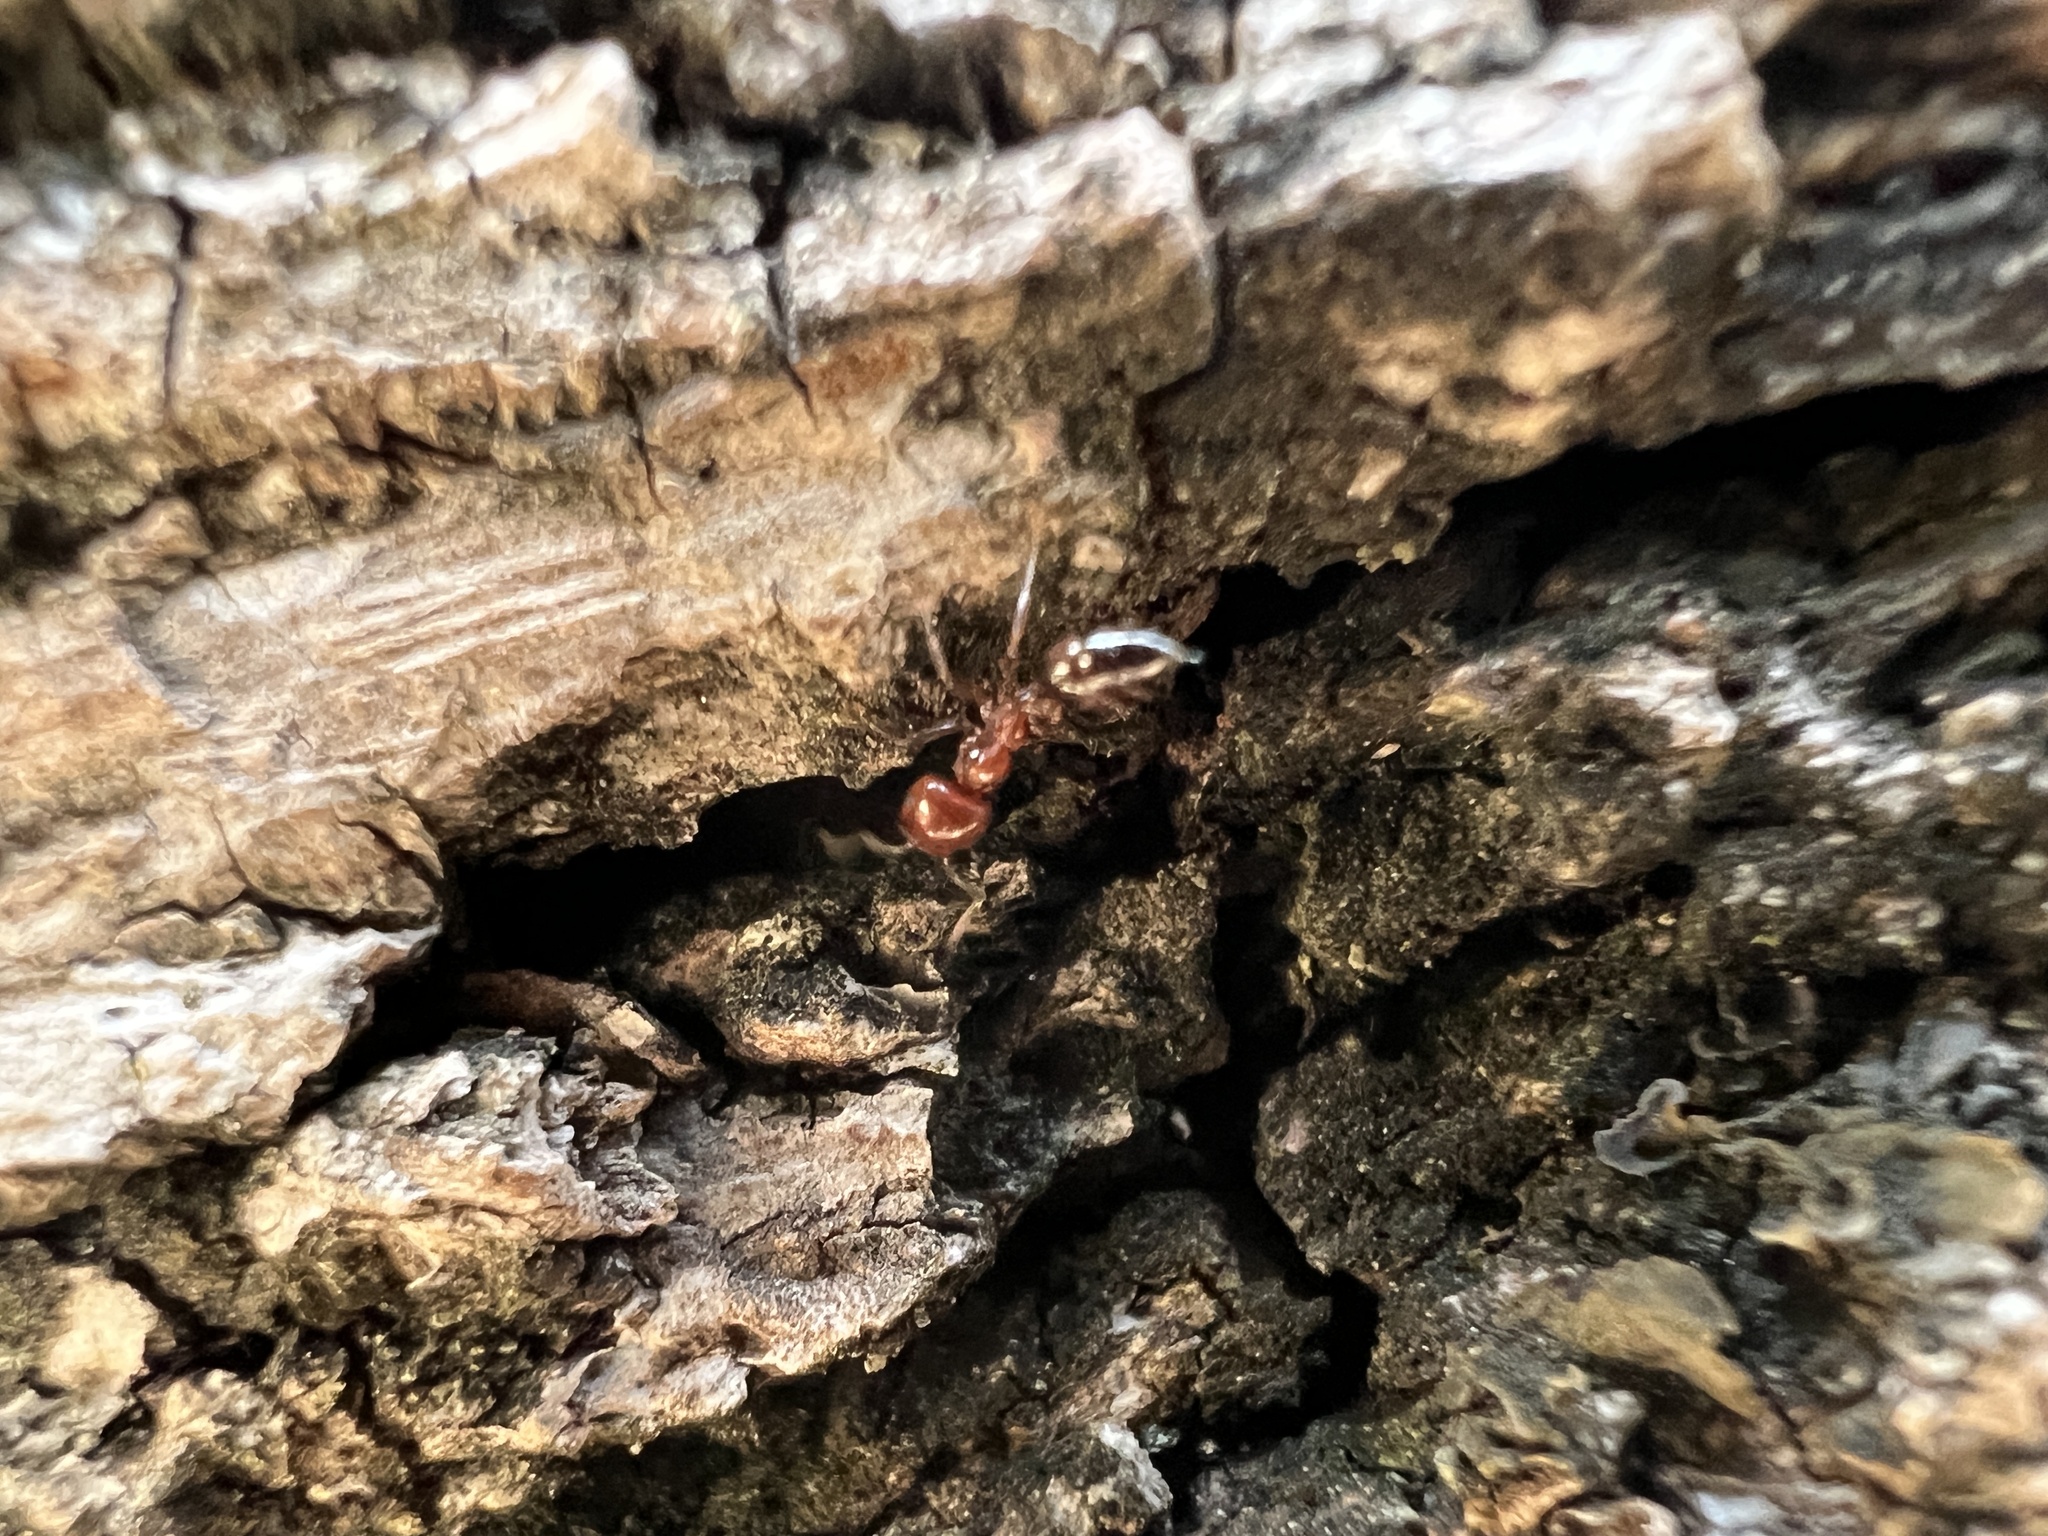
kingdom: Animalia
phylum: Arthropoda
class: Insecta
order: Hymenoptera
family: Formicidae
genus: Crematogaster
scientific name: Crematogaster laeviuscula
